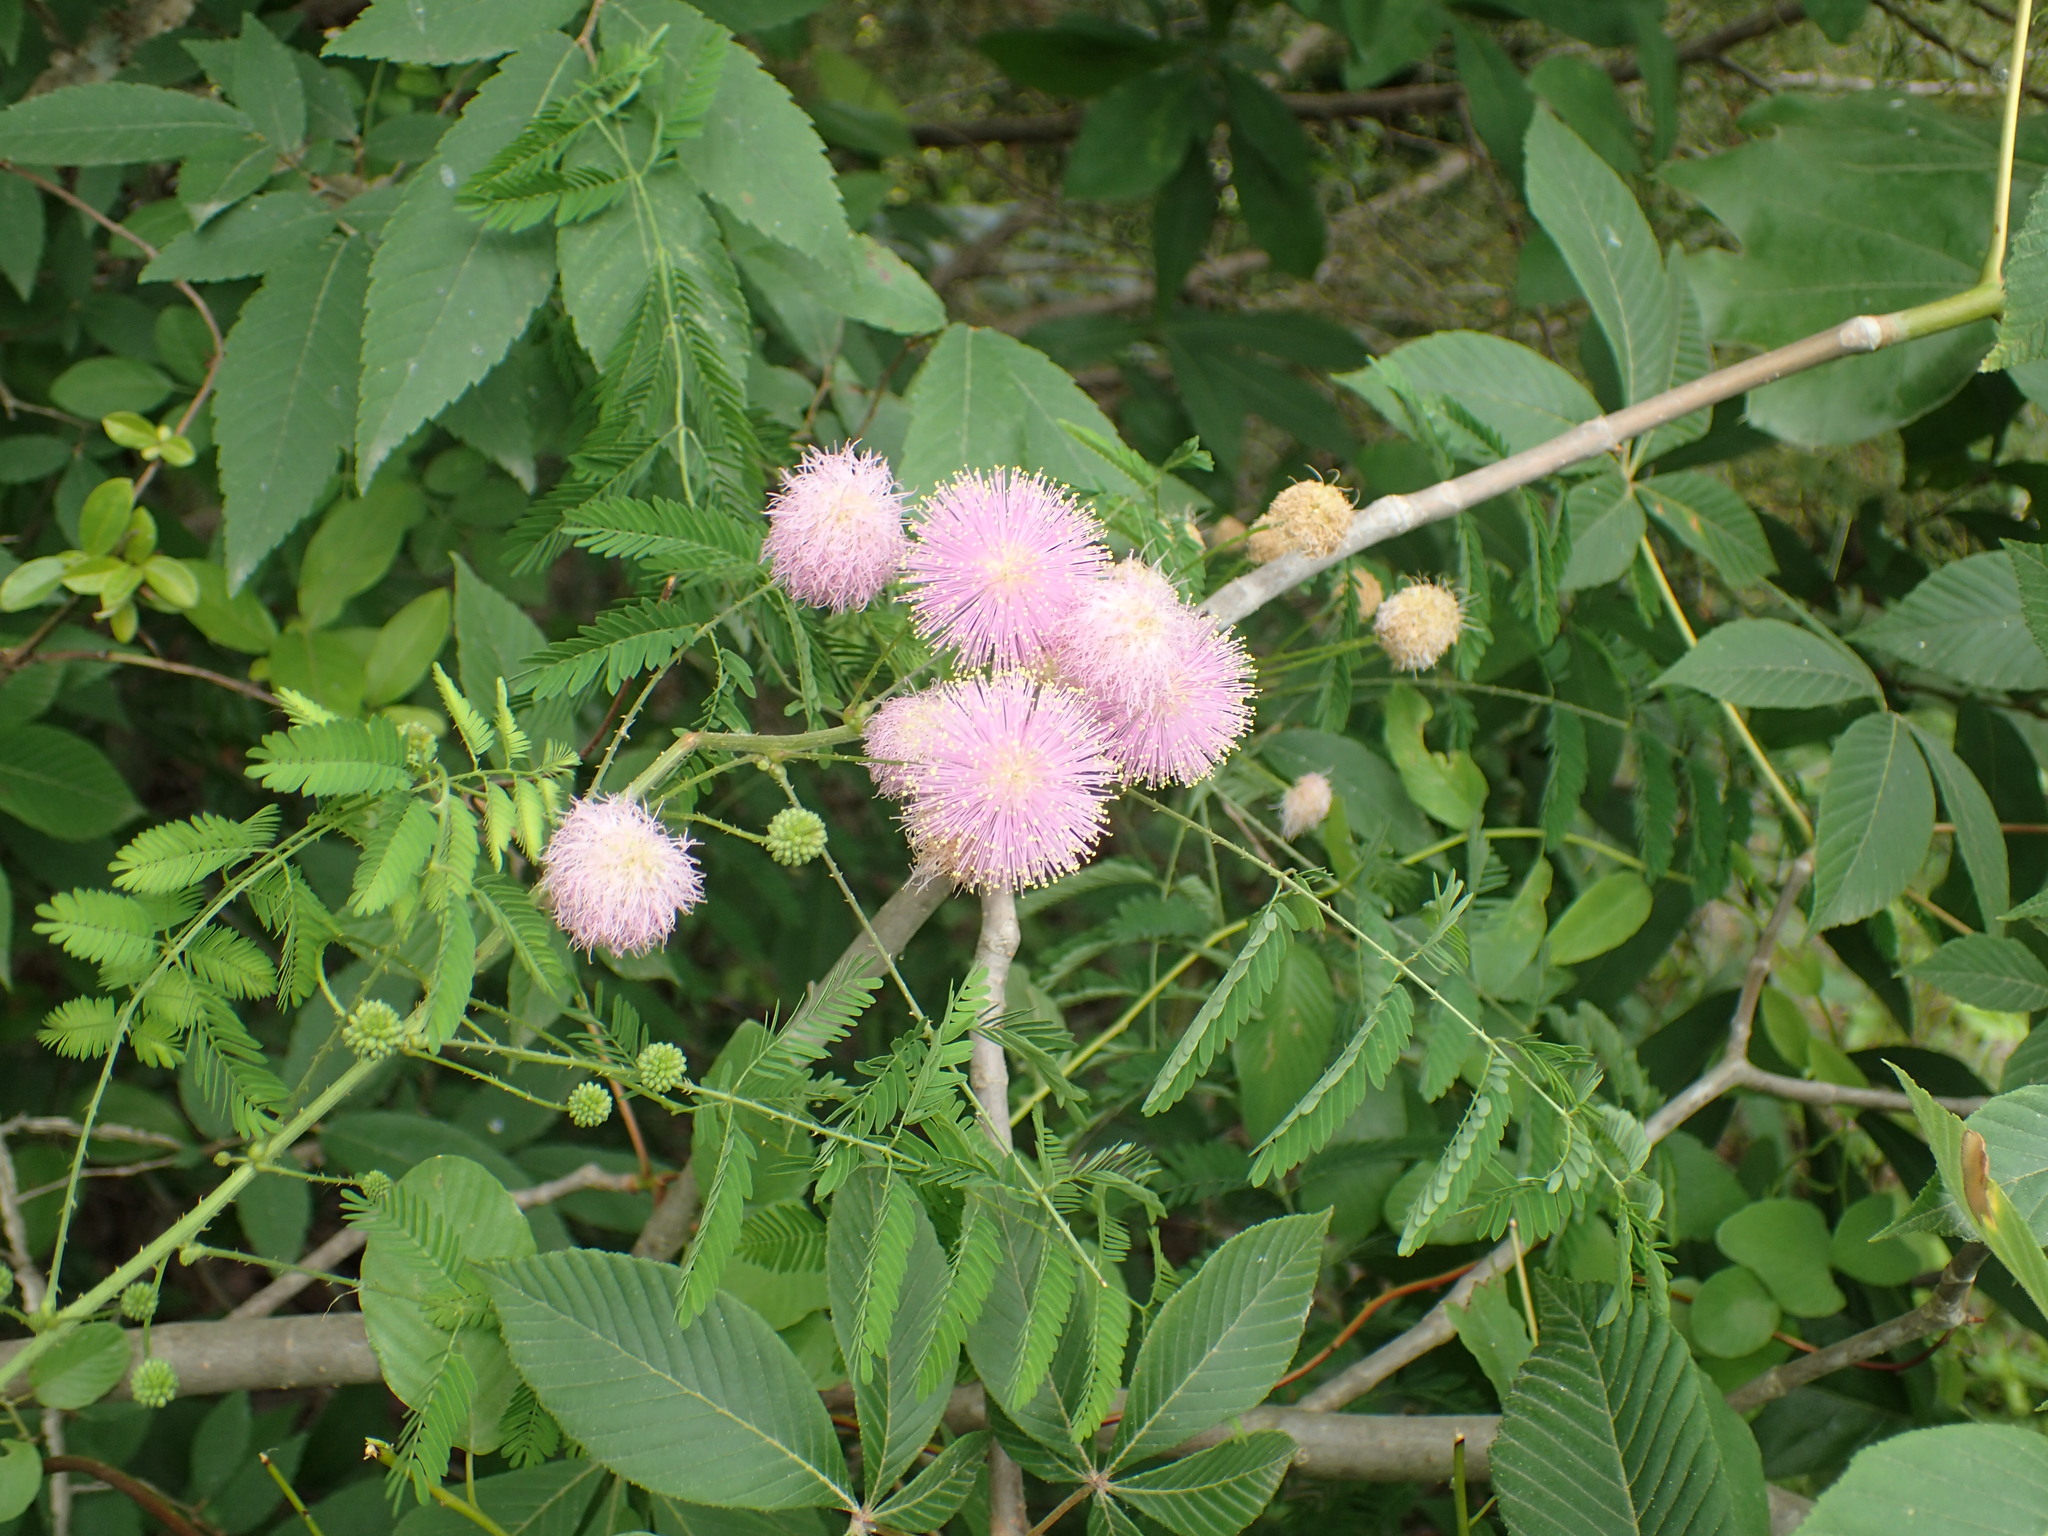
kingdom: Plantae
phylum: Tracheophyta
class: Magnoliopsida
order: Fabales
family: Fabaceae
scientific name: Fabaceae
